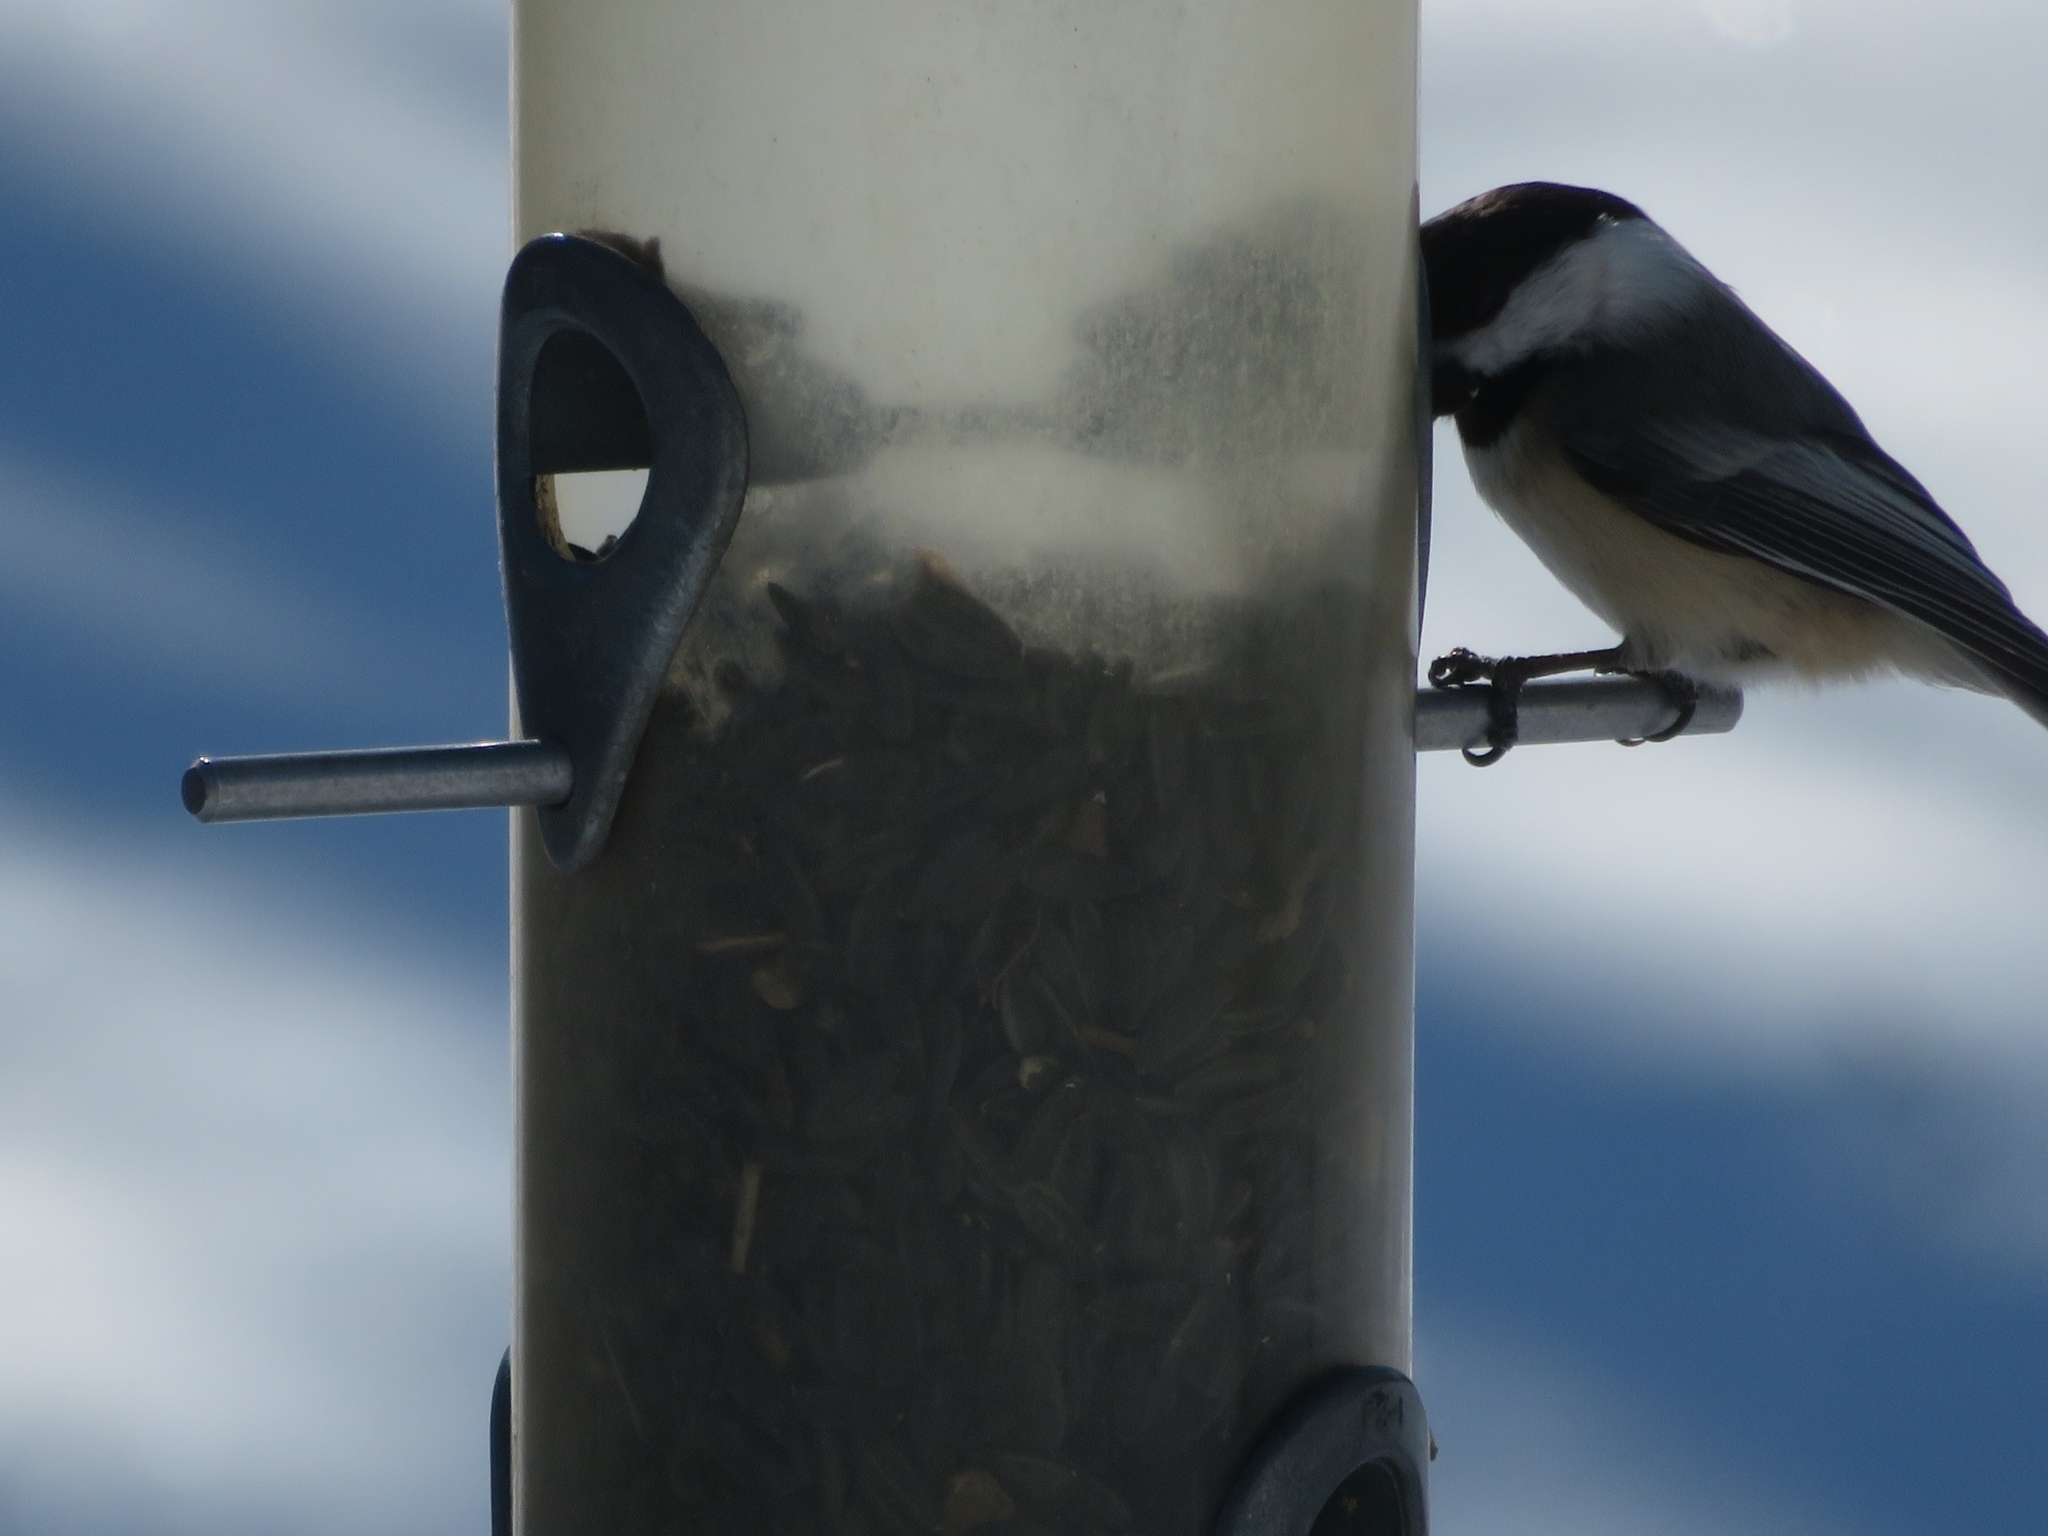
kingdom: Animalia
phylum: Chordata
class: Aves
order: Passeriformes
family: Paridae
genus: Poecile
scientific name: Poecile atricapillus
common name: Black-capped chickadee
